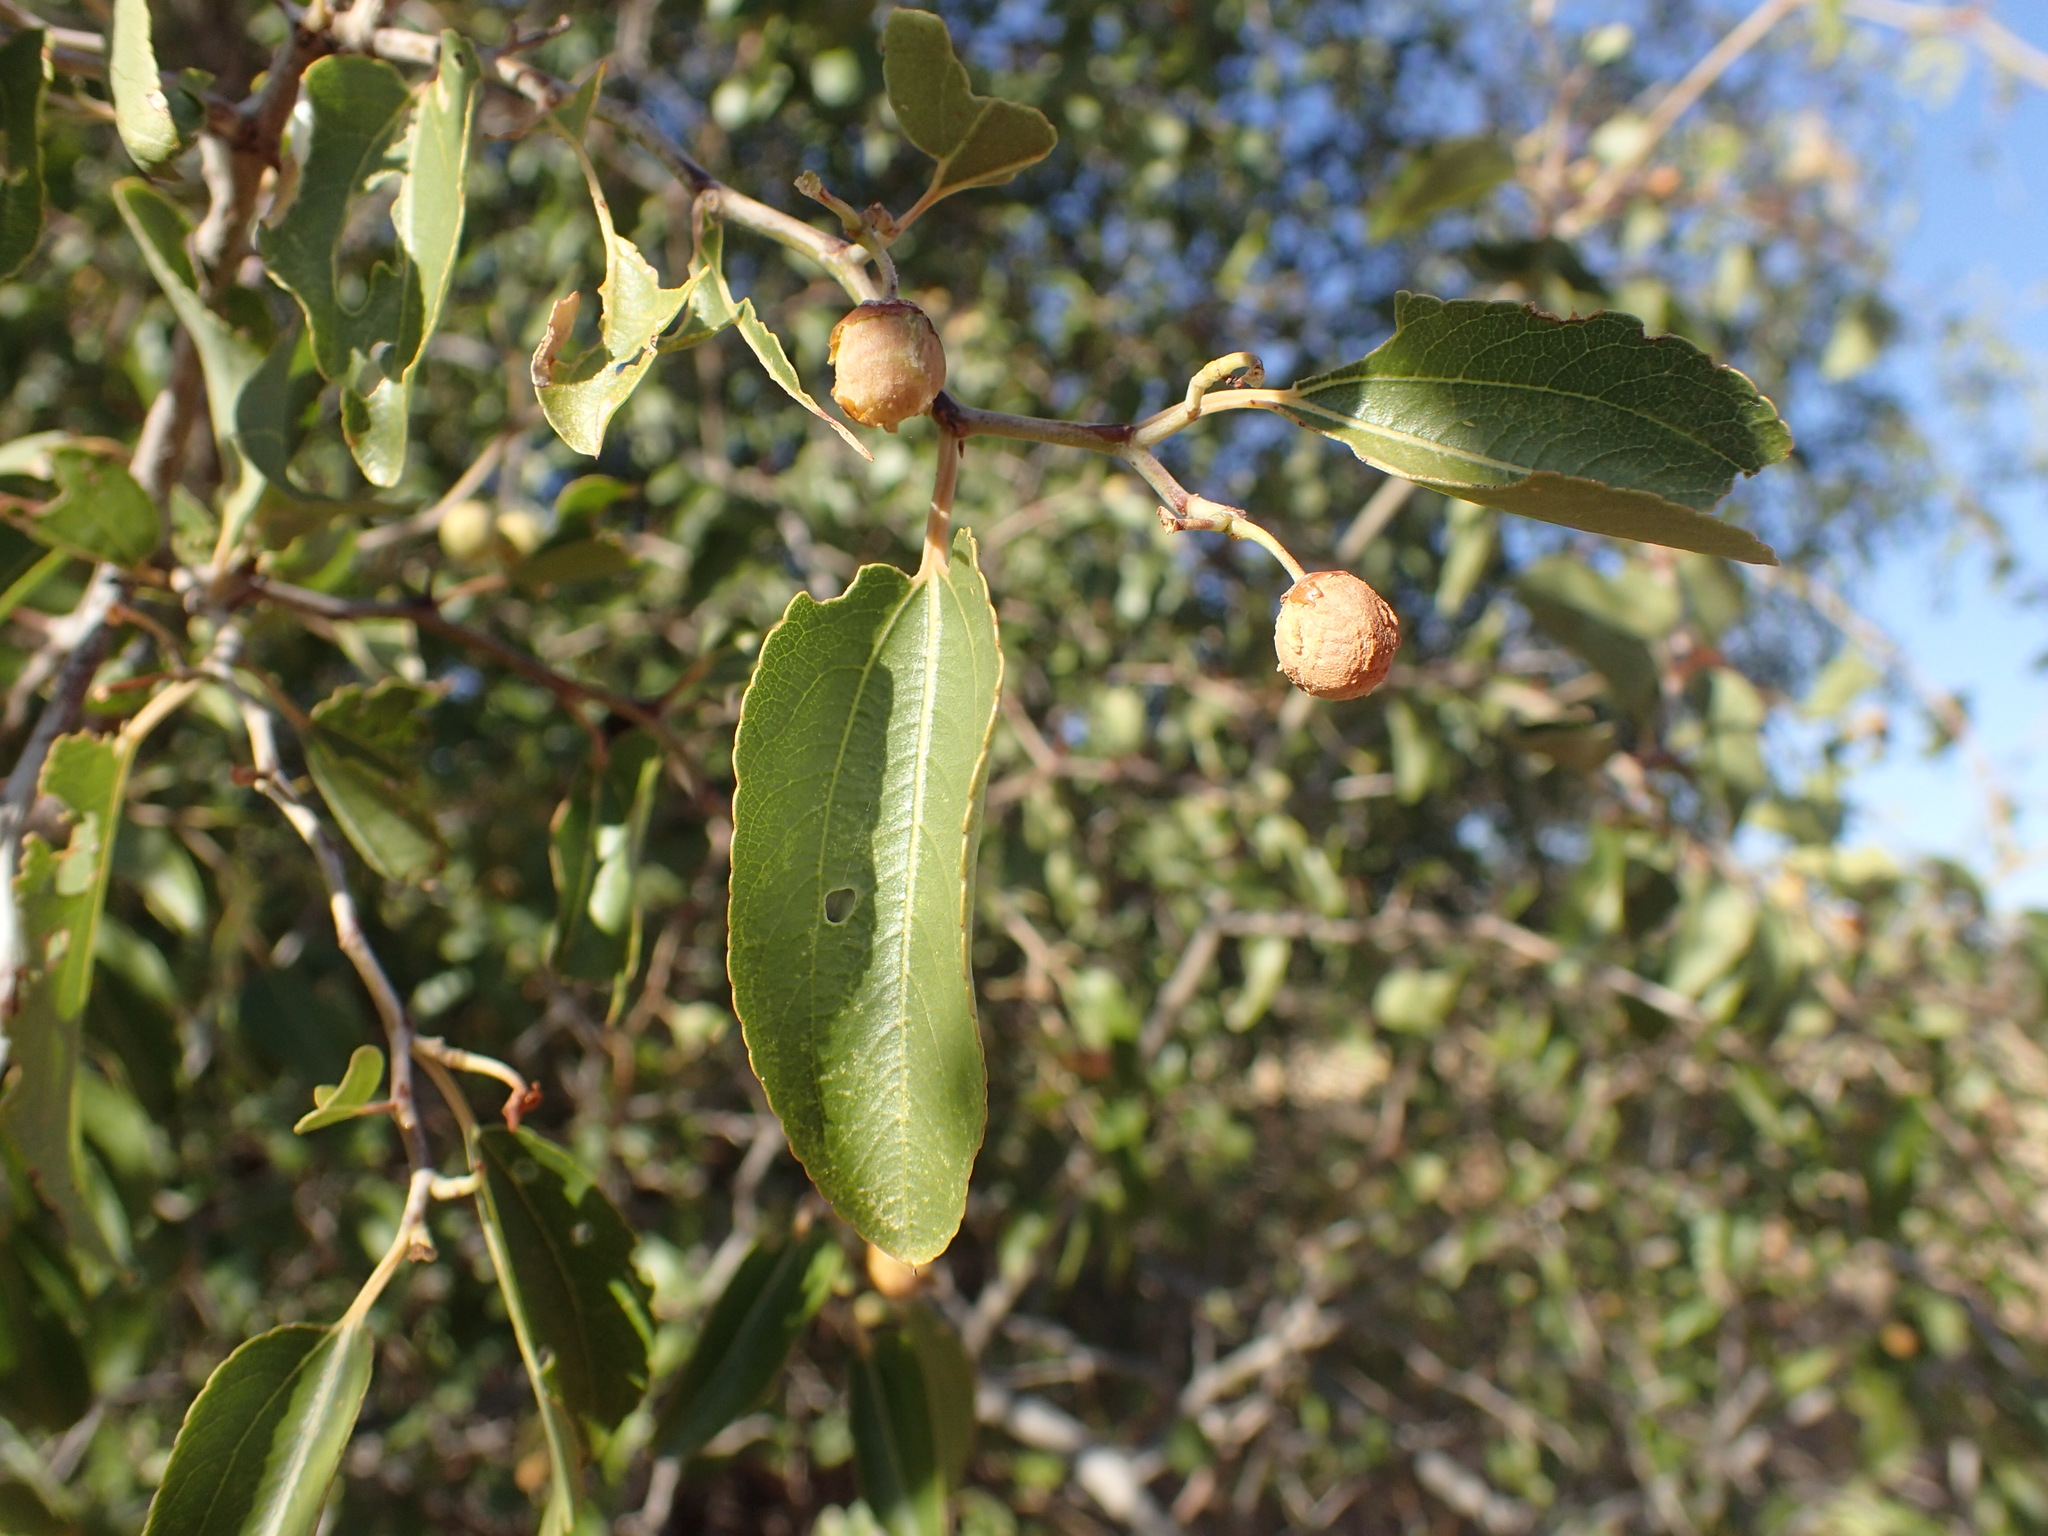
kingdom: Plantae
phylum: Tracheophyta
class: Magnoliopsida
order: Rosales
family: Rhamnaceae
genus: Ziziphus
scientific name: Ziziphus mucronata
